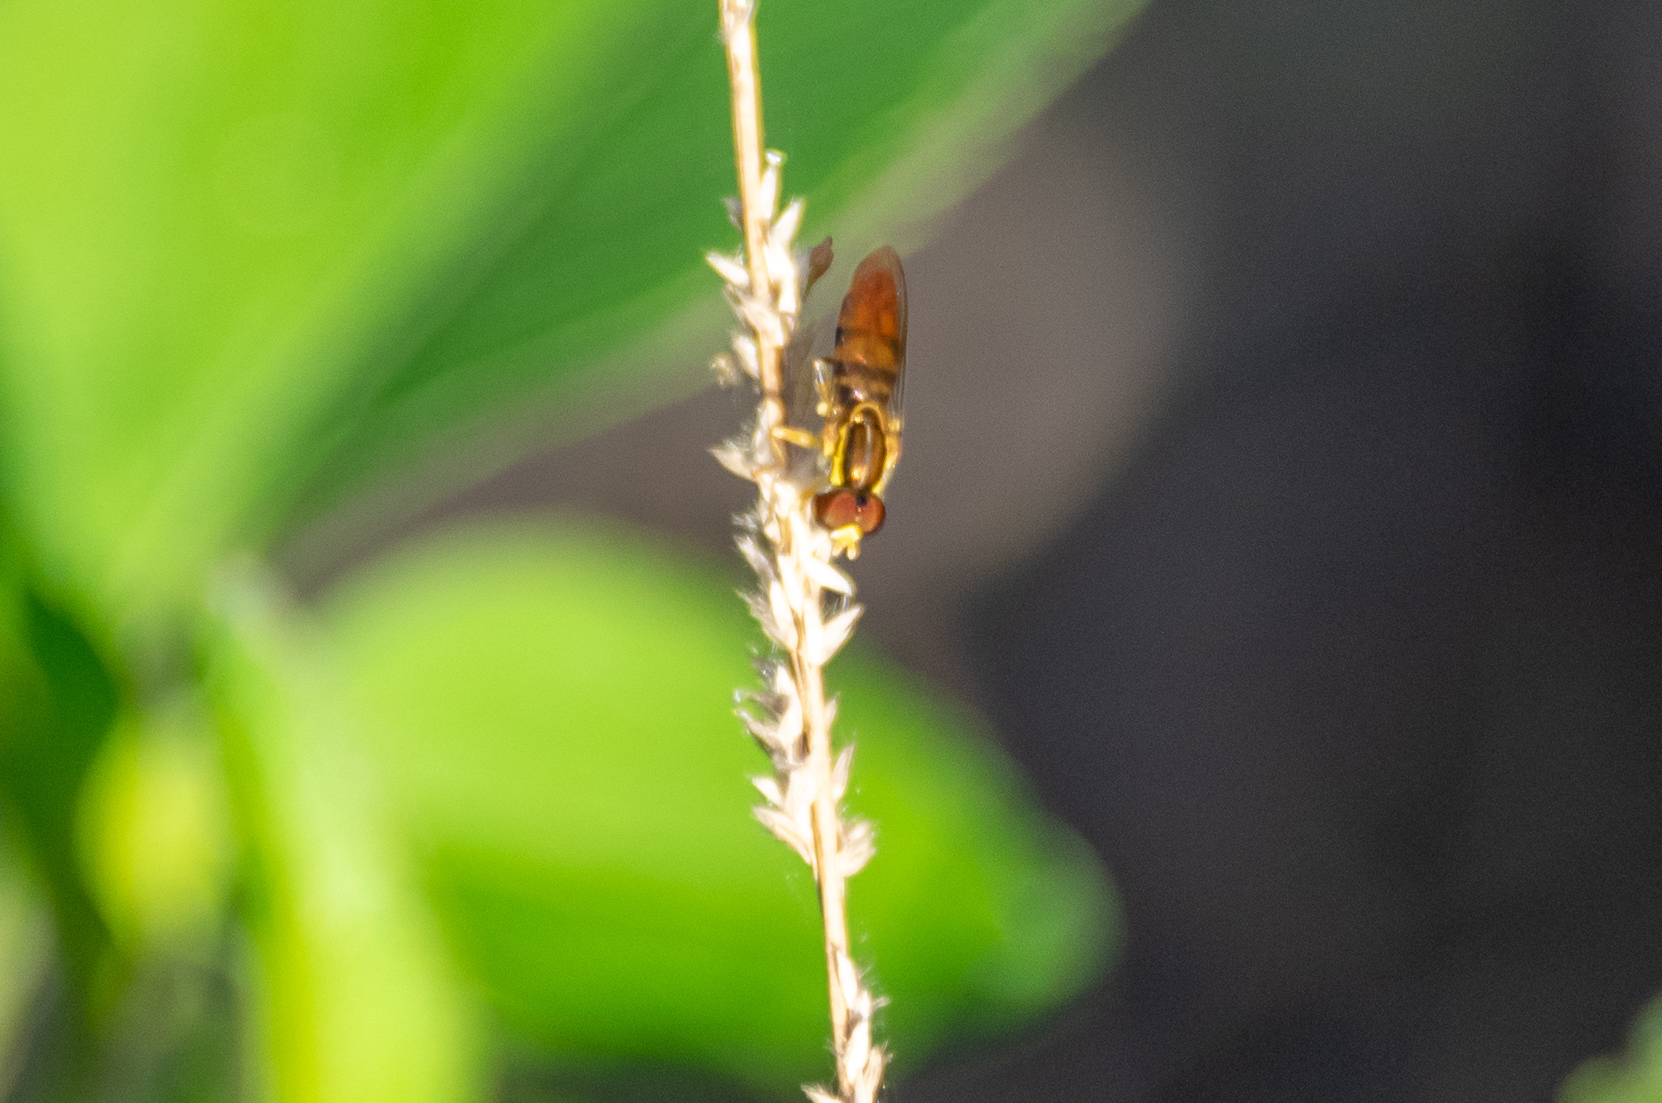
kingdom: Animalia
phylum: Arthropoda
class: Insecta
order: Diptera
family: Syrphidae
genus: Toxomerus
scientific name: Toxomerus floralis
